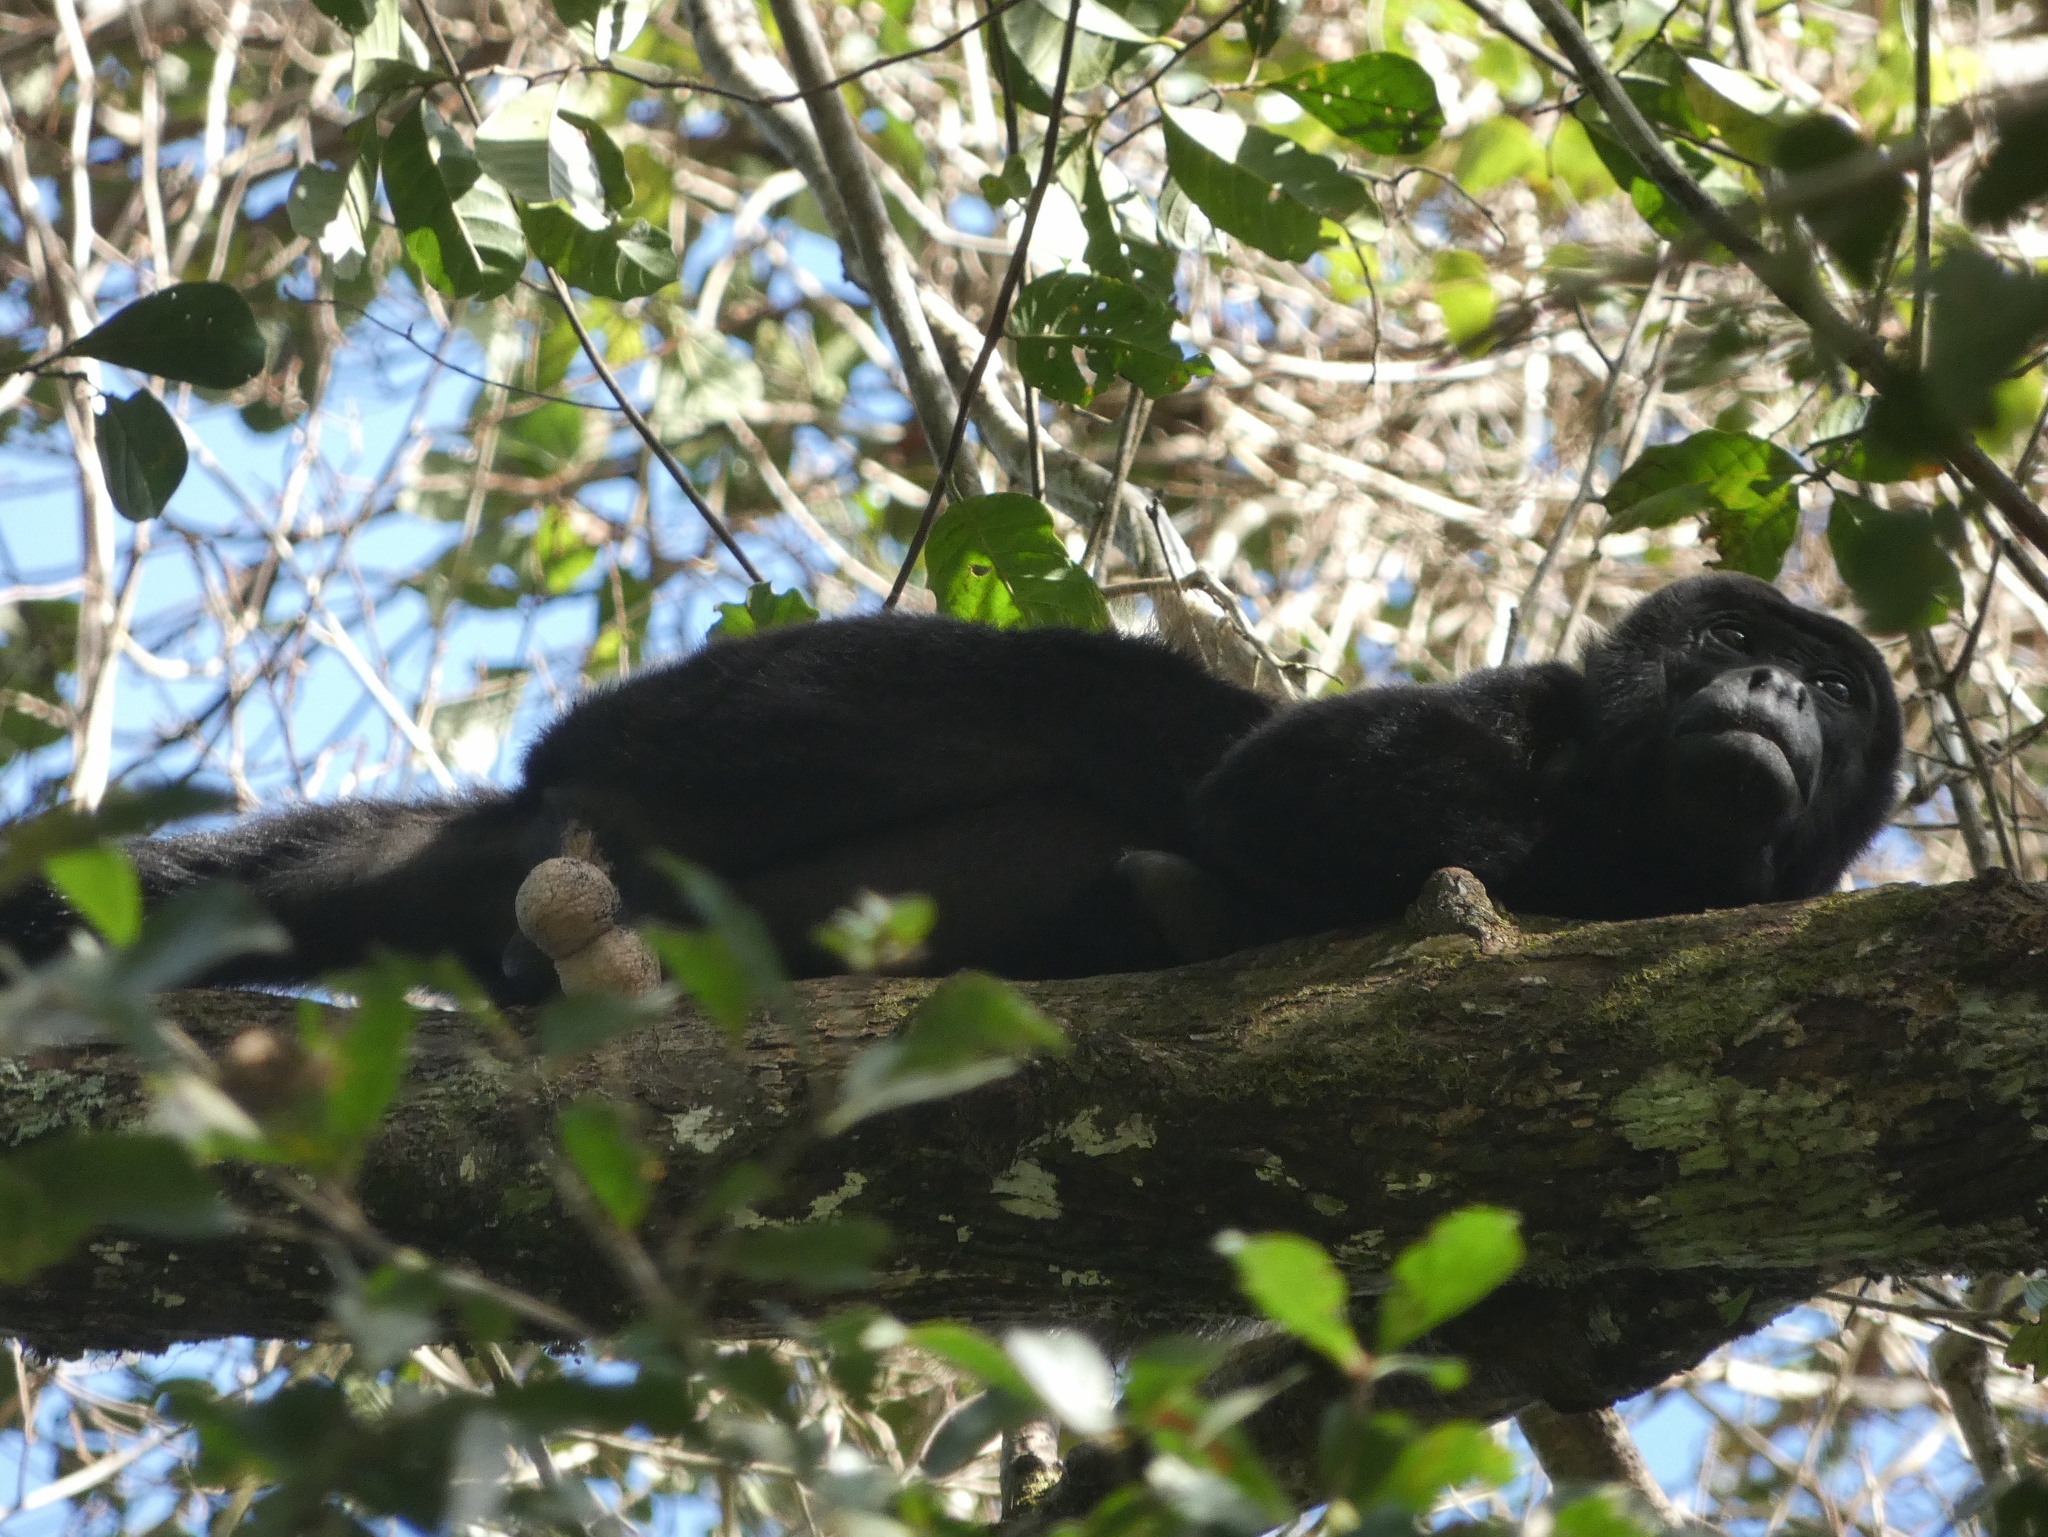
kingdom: Animalia
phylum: Chordata
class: Mammalia
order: Primates
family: Atelidae
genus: Alouatta
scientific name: Alouatta palliata
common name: Mantled howler
